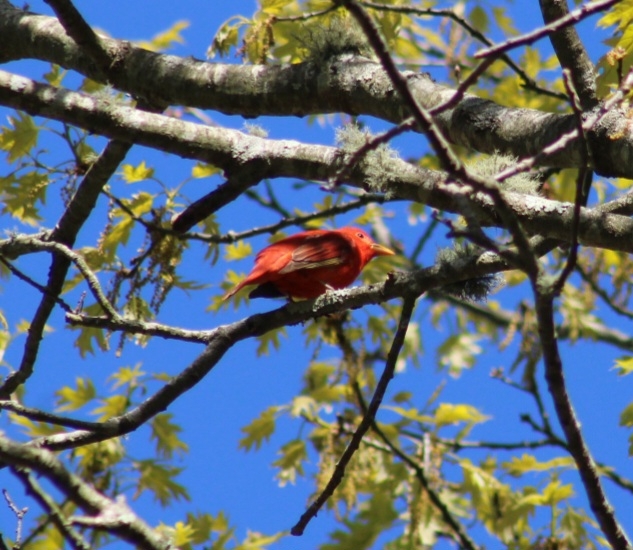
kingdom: Animalia
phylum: Chordata
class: Aves
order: Passeriformes
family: Cardinalidae
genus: Piranga
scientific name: Piranga rubra
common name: Summer tanager
